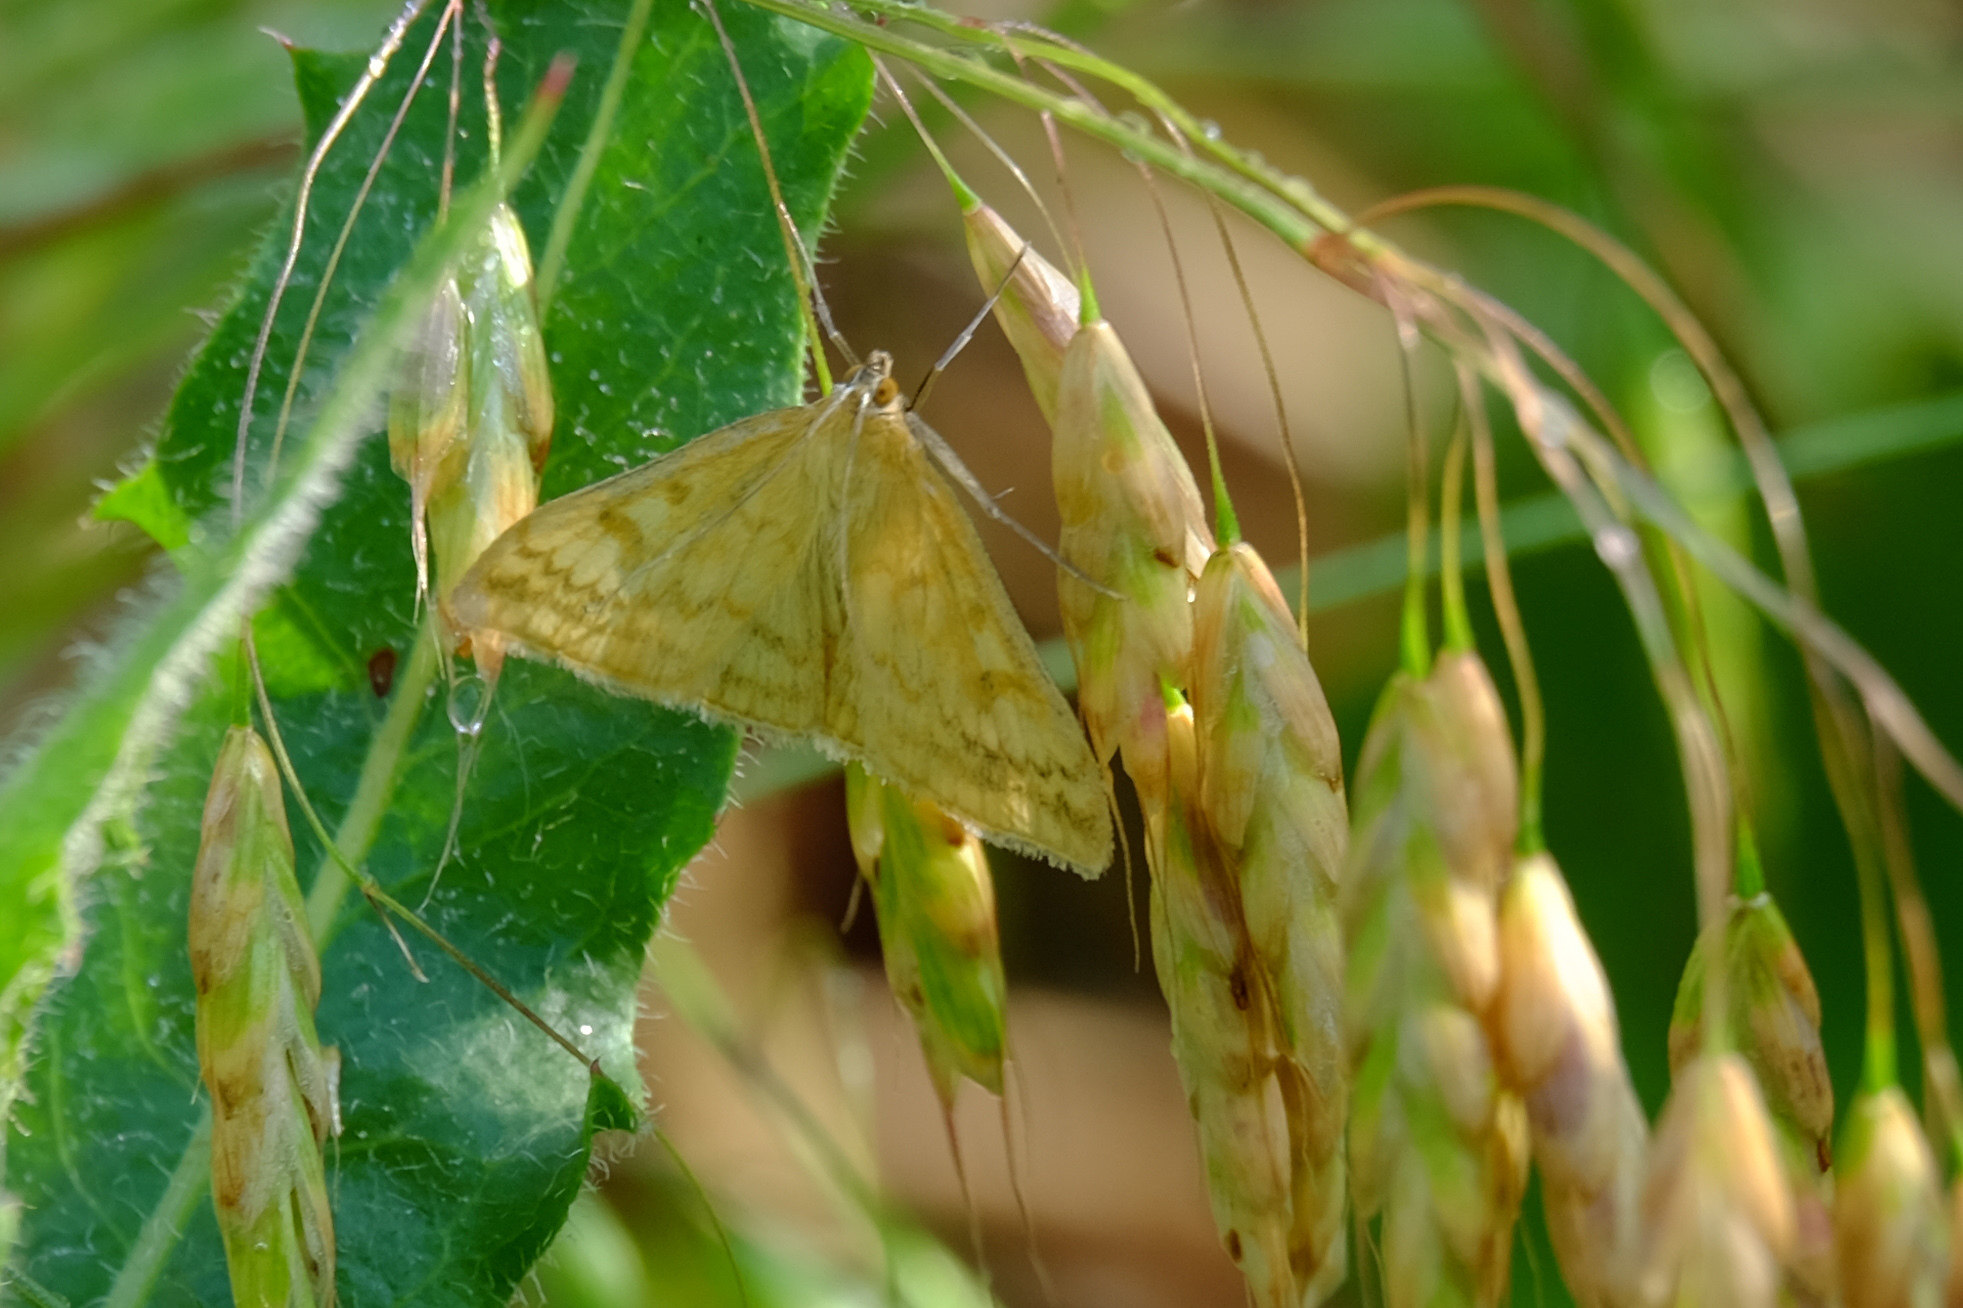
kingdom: Animalia
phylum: Arthropoda
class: Insecta
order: Lepidoptera
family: Crambidae
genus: Sitochroa
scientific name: Sitochroa verticalis
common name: Lesser pearl
